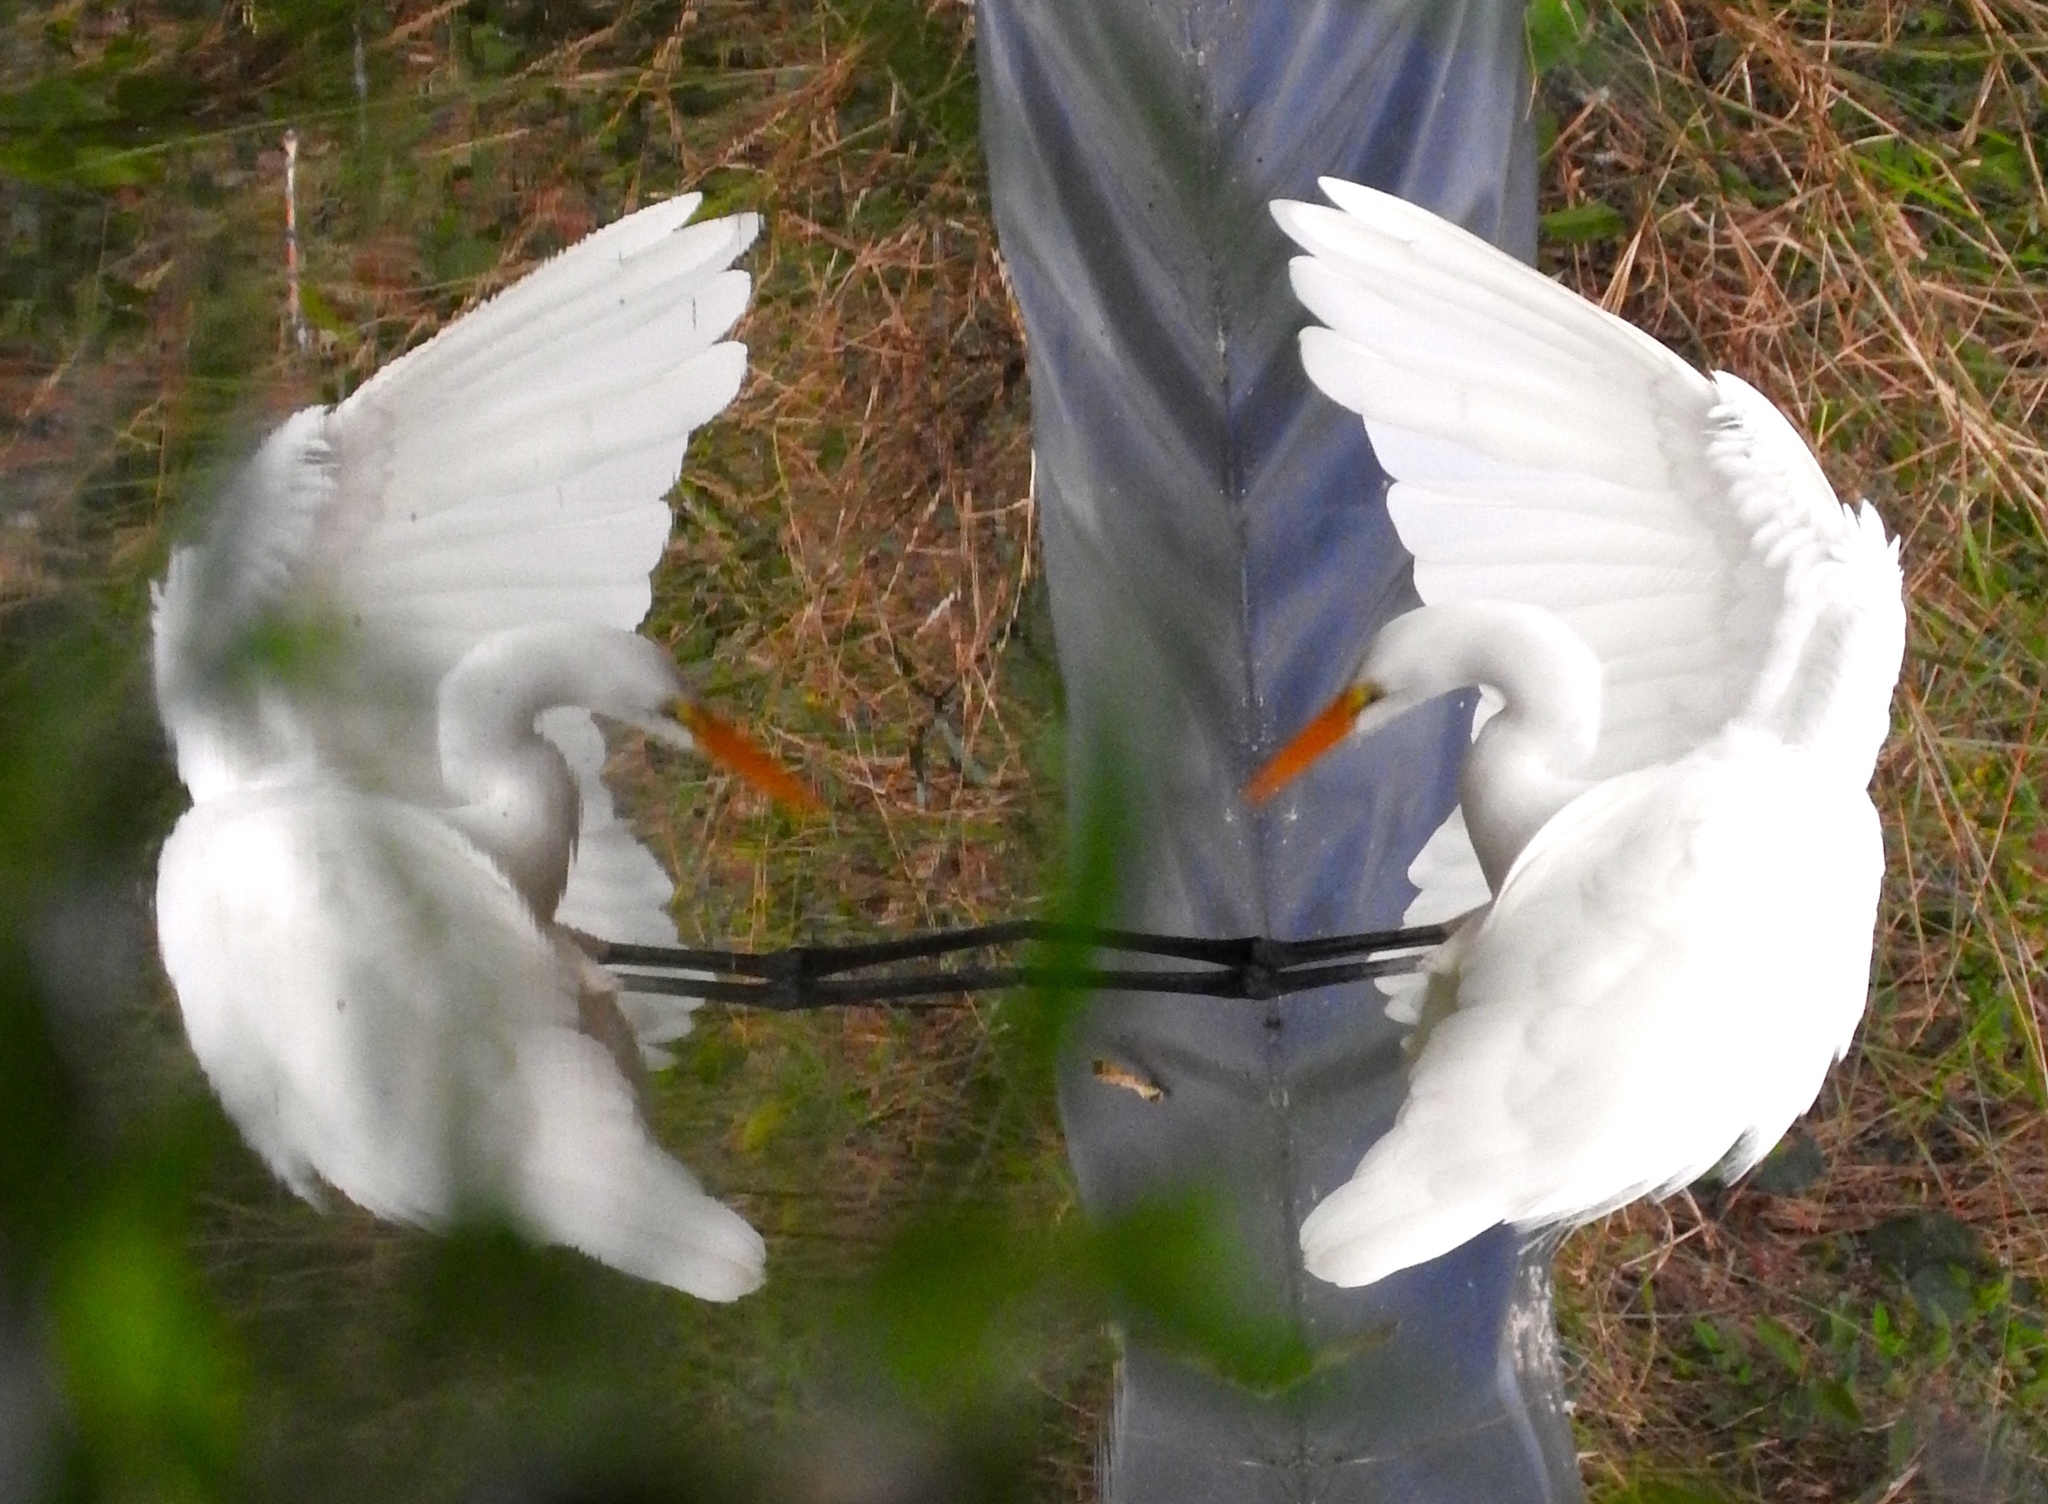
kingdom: Animalia
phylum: Chordata
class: Aves
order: Pelecaniformes
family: Ardeidae
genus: Ardea
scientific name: Ardea alba
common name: Great egret
